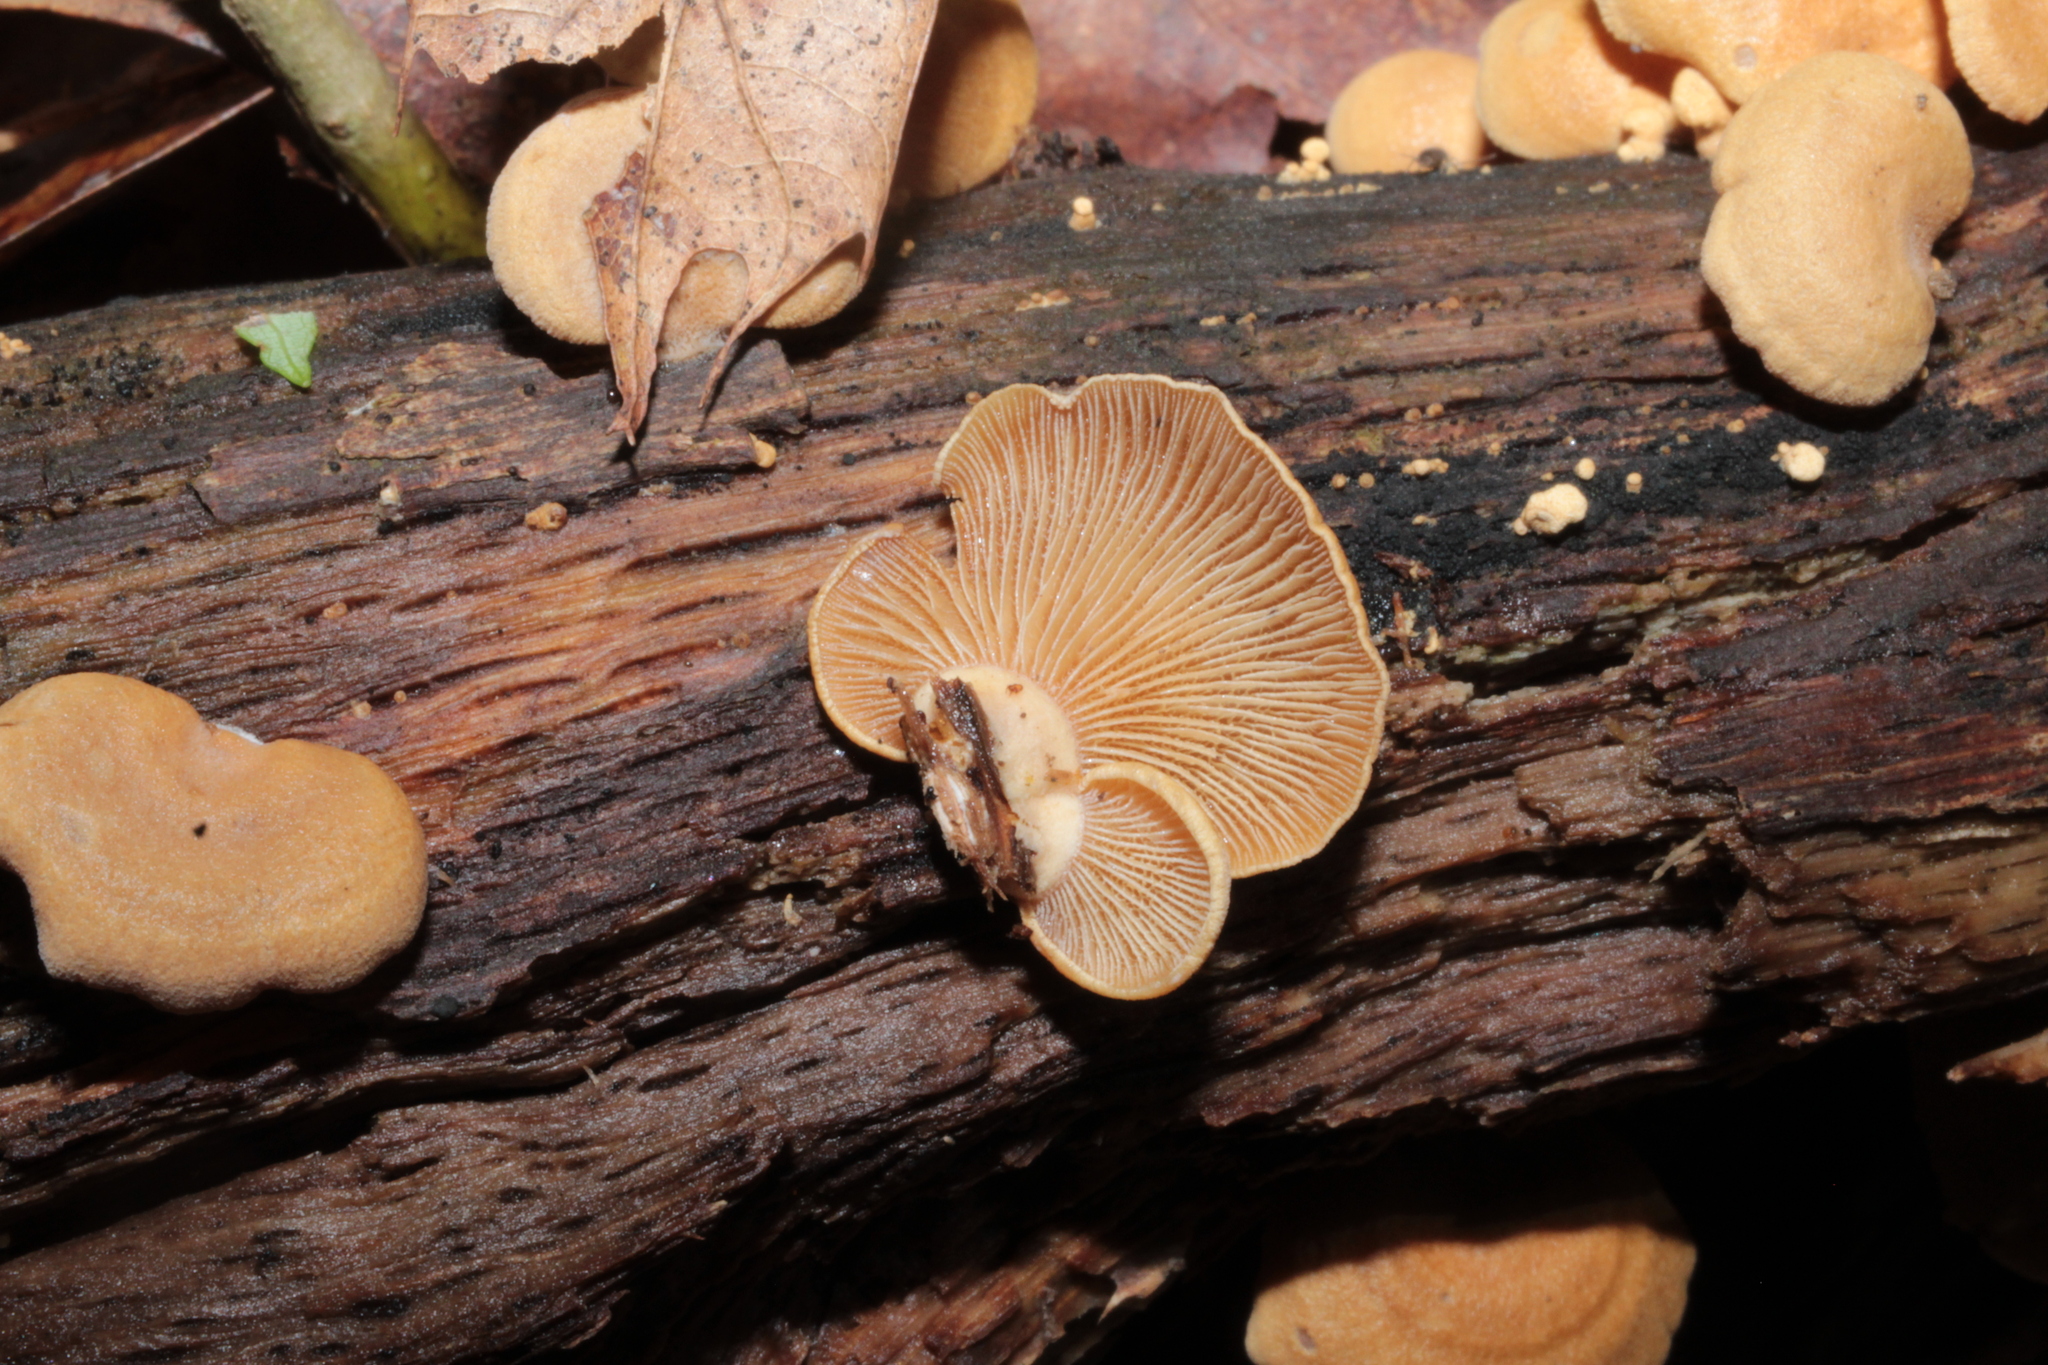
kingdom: Fungi
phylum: Basidiomycota
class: Agaricomycetes
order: Agaricales
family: Mycenaceae
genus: Panellus
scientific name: Panellus stipticus
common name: Bitter oysterling
